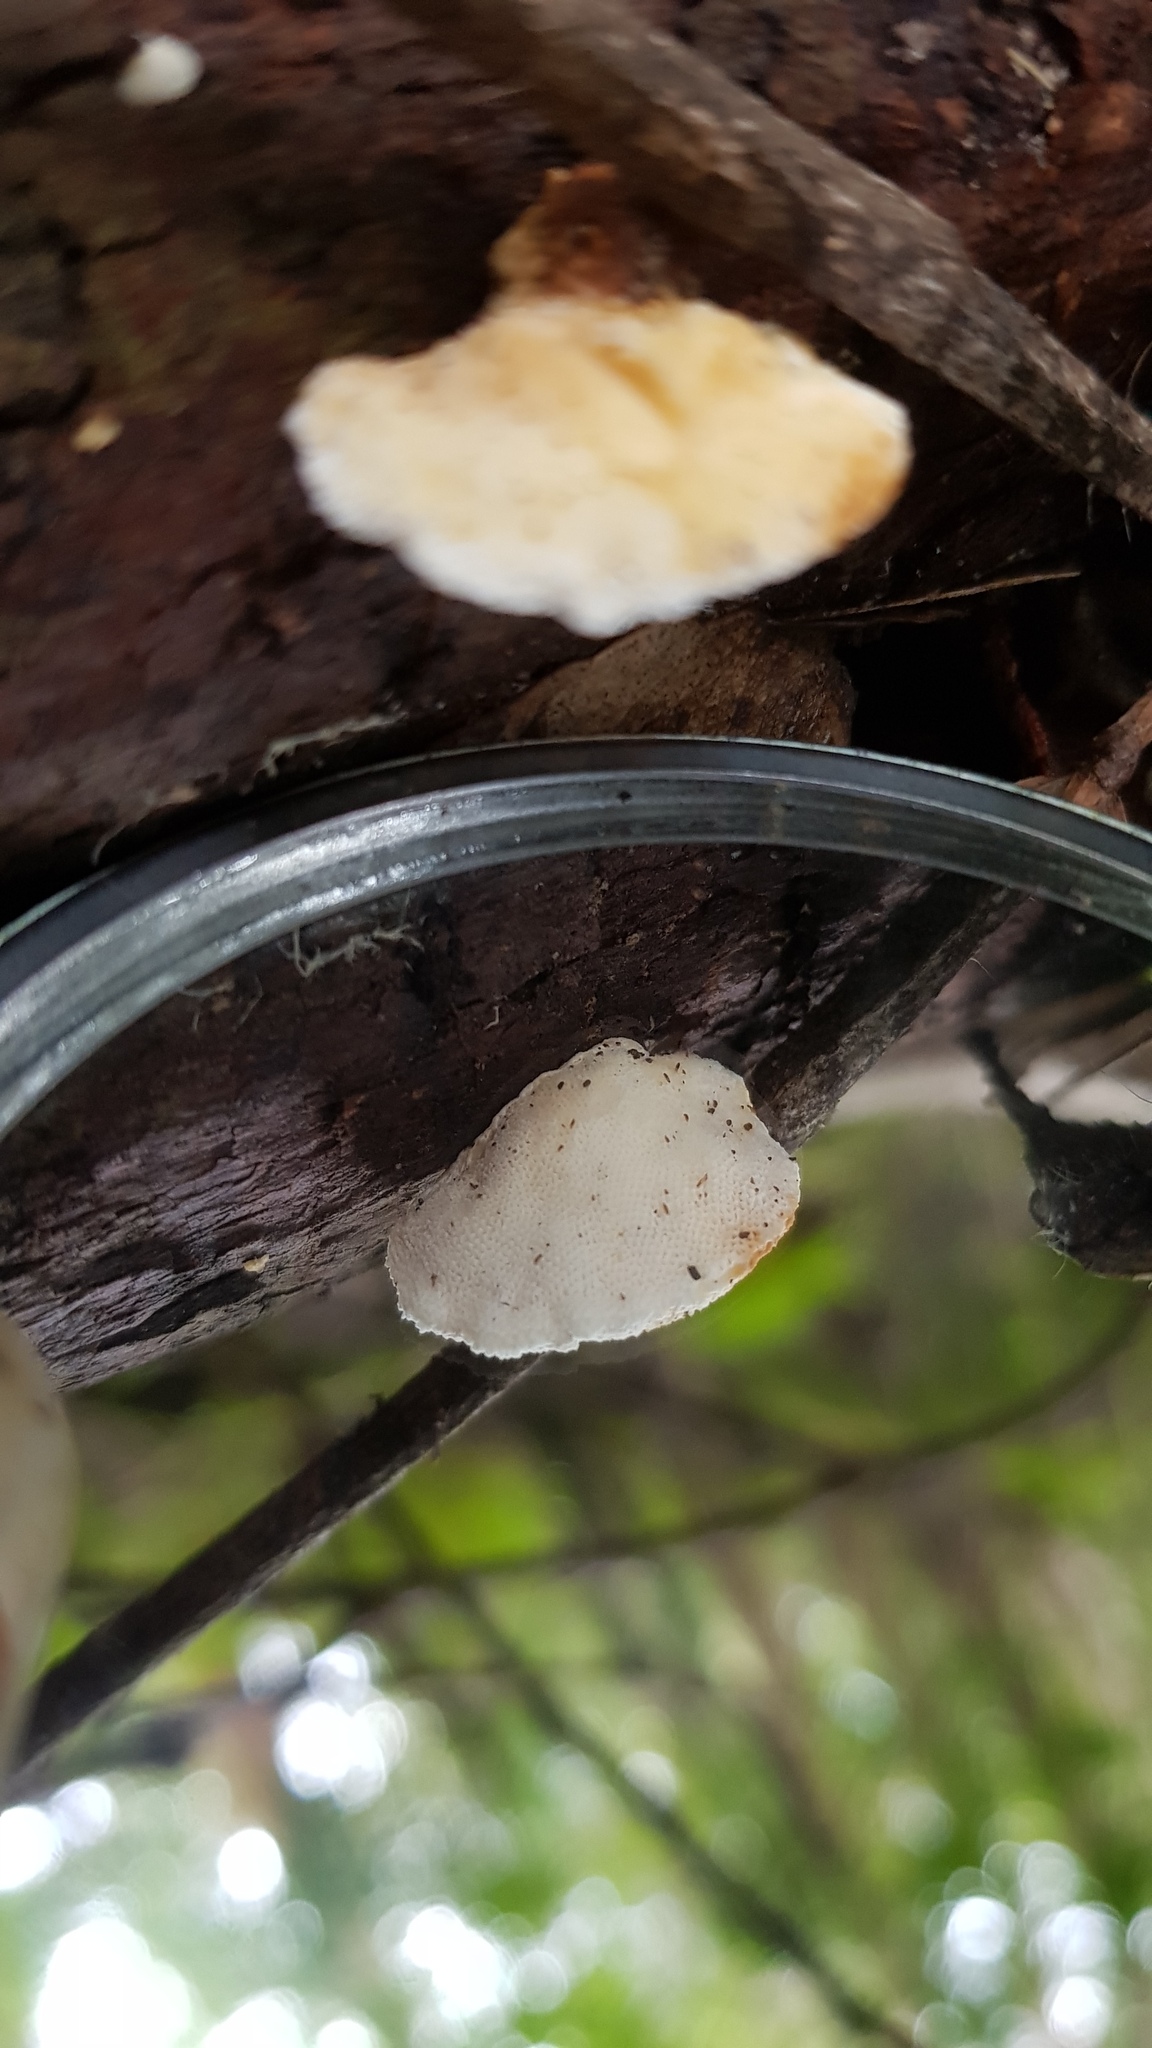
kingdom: Fungi
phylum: Basidiomycota
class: Agaricomycetes
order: Polyporales
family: Polyporaceae
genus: Truncospora
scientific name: Truncospora ochroleuca
